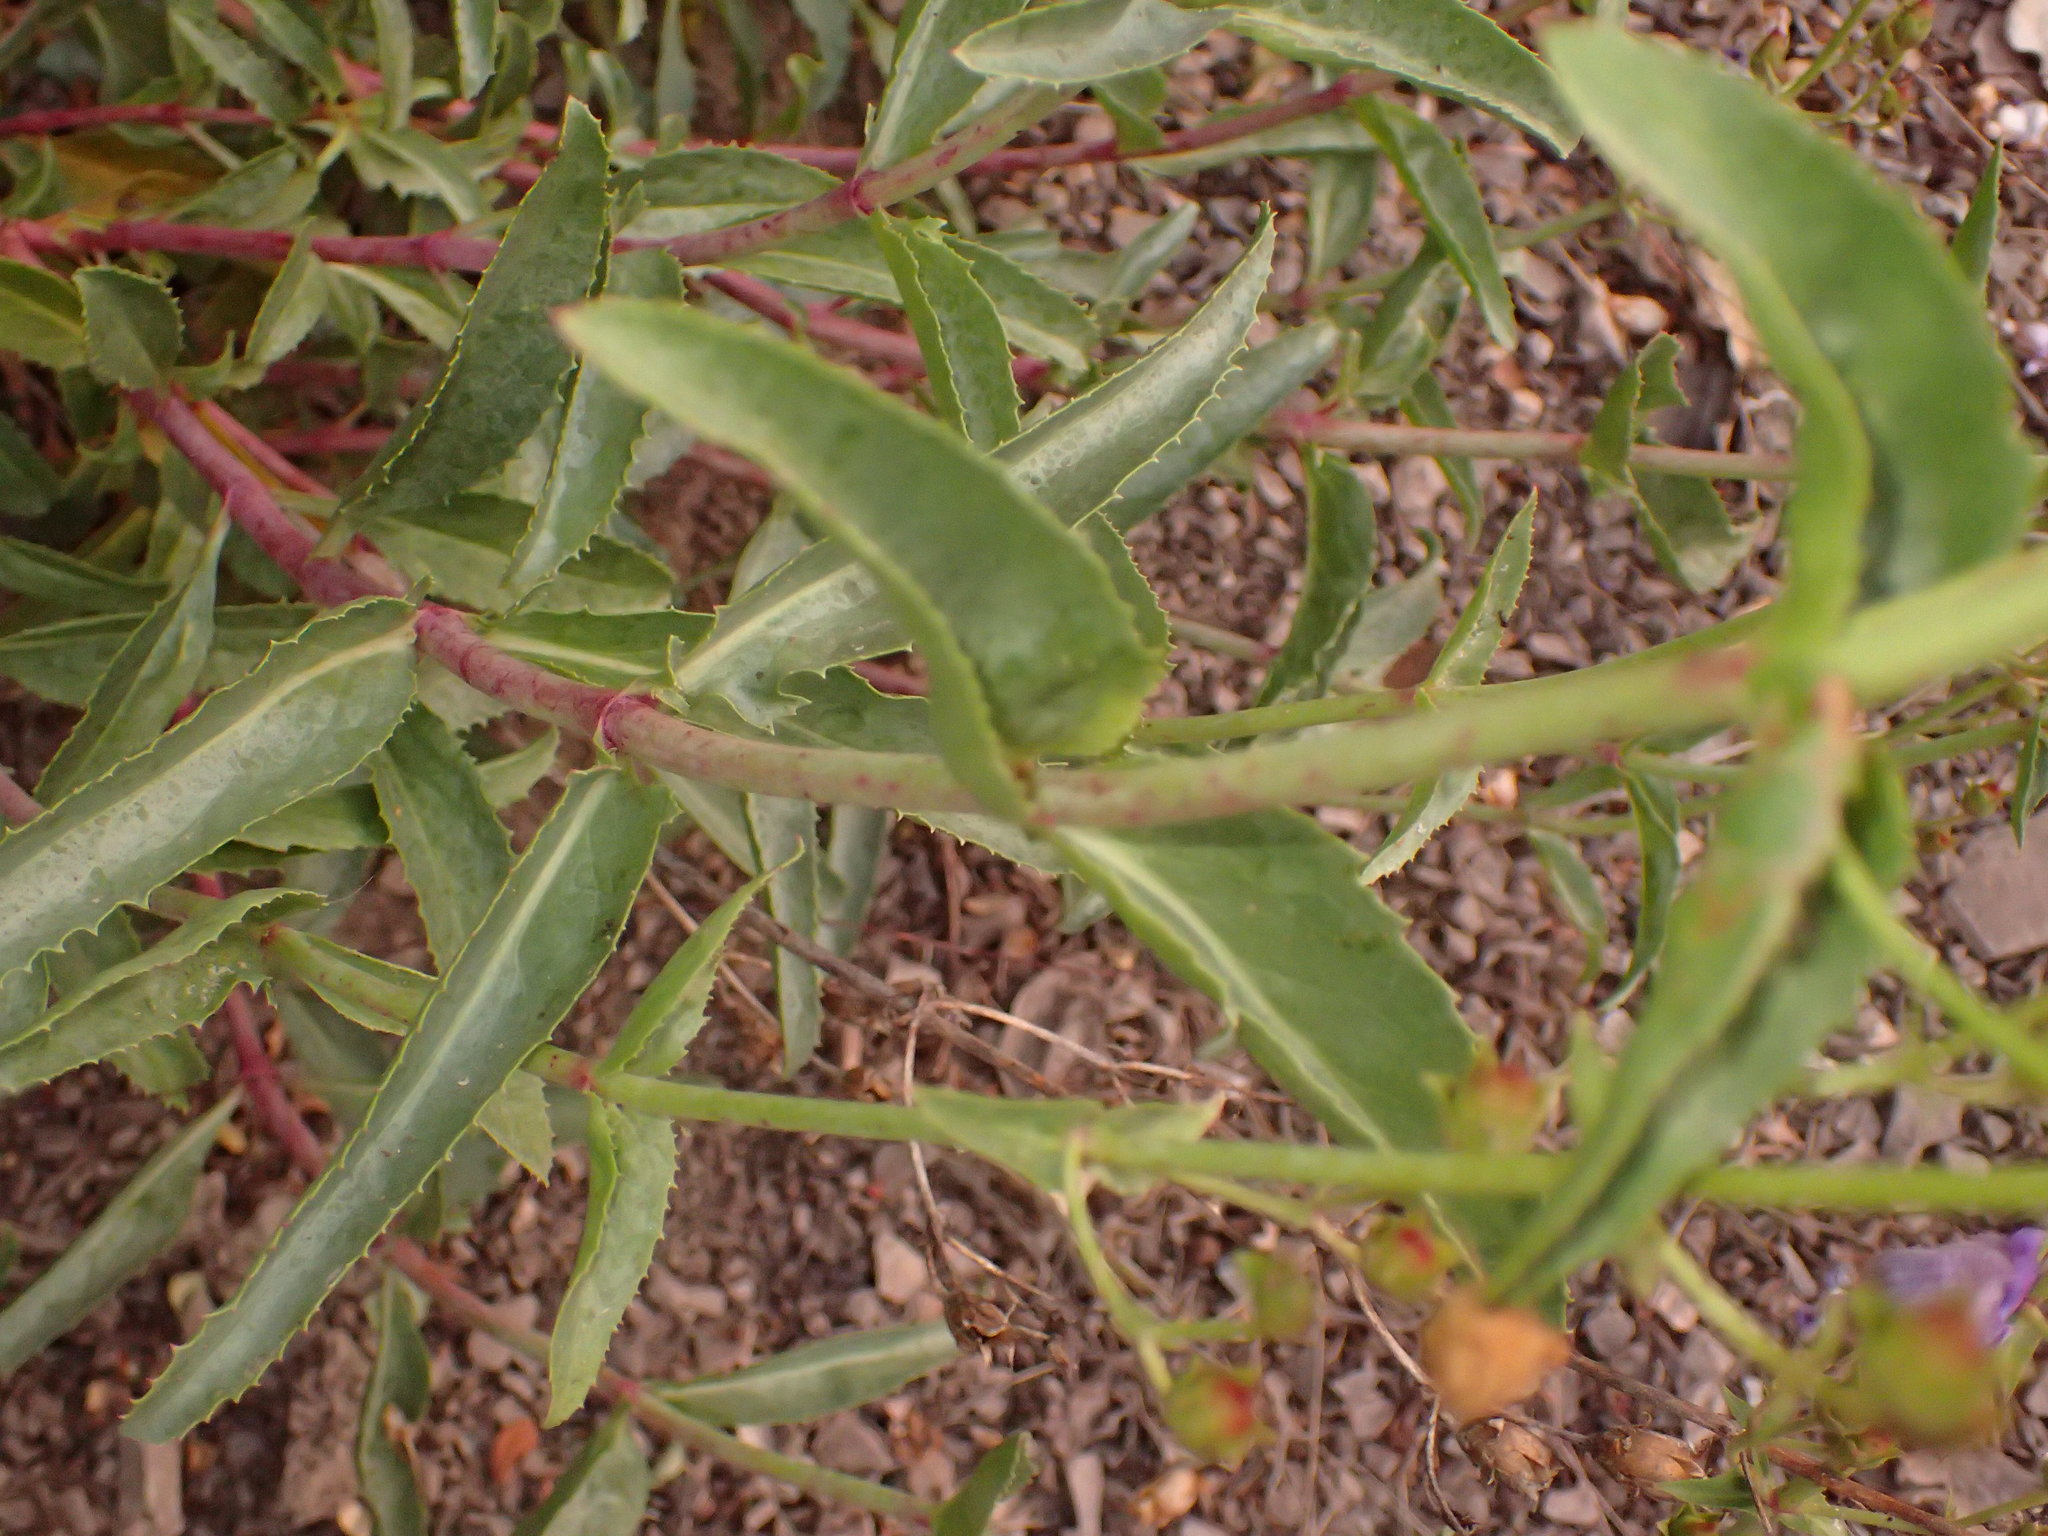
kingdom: Plantae
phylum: Tracheophyta
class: Magnoliopsida
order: Lamiales
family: Plantaginaceae
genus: Penstemon
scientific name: Penstemon grinnellii
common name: Grinnell's beardtongue
